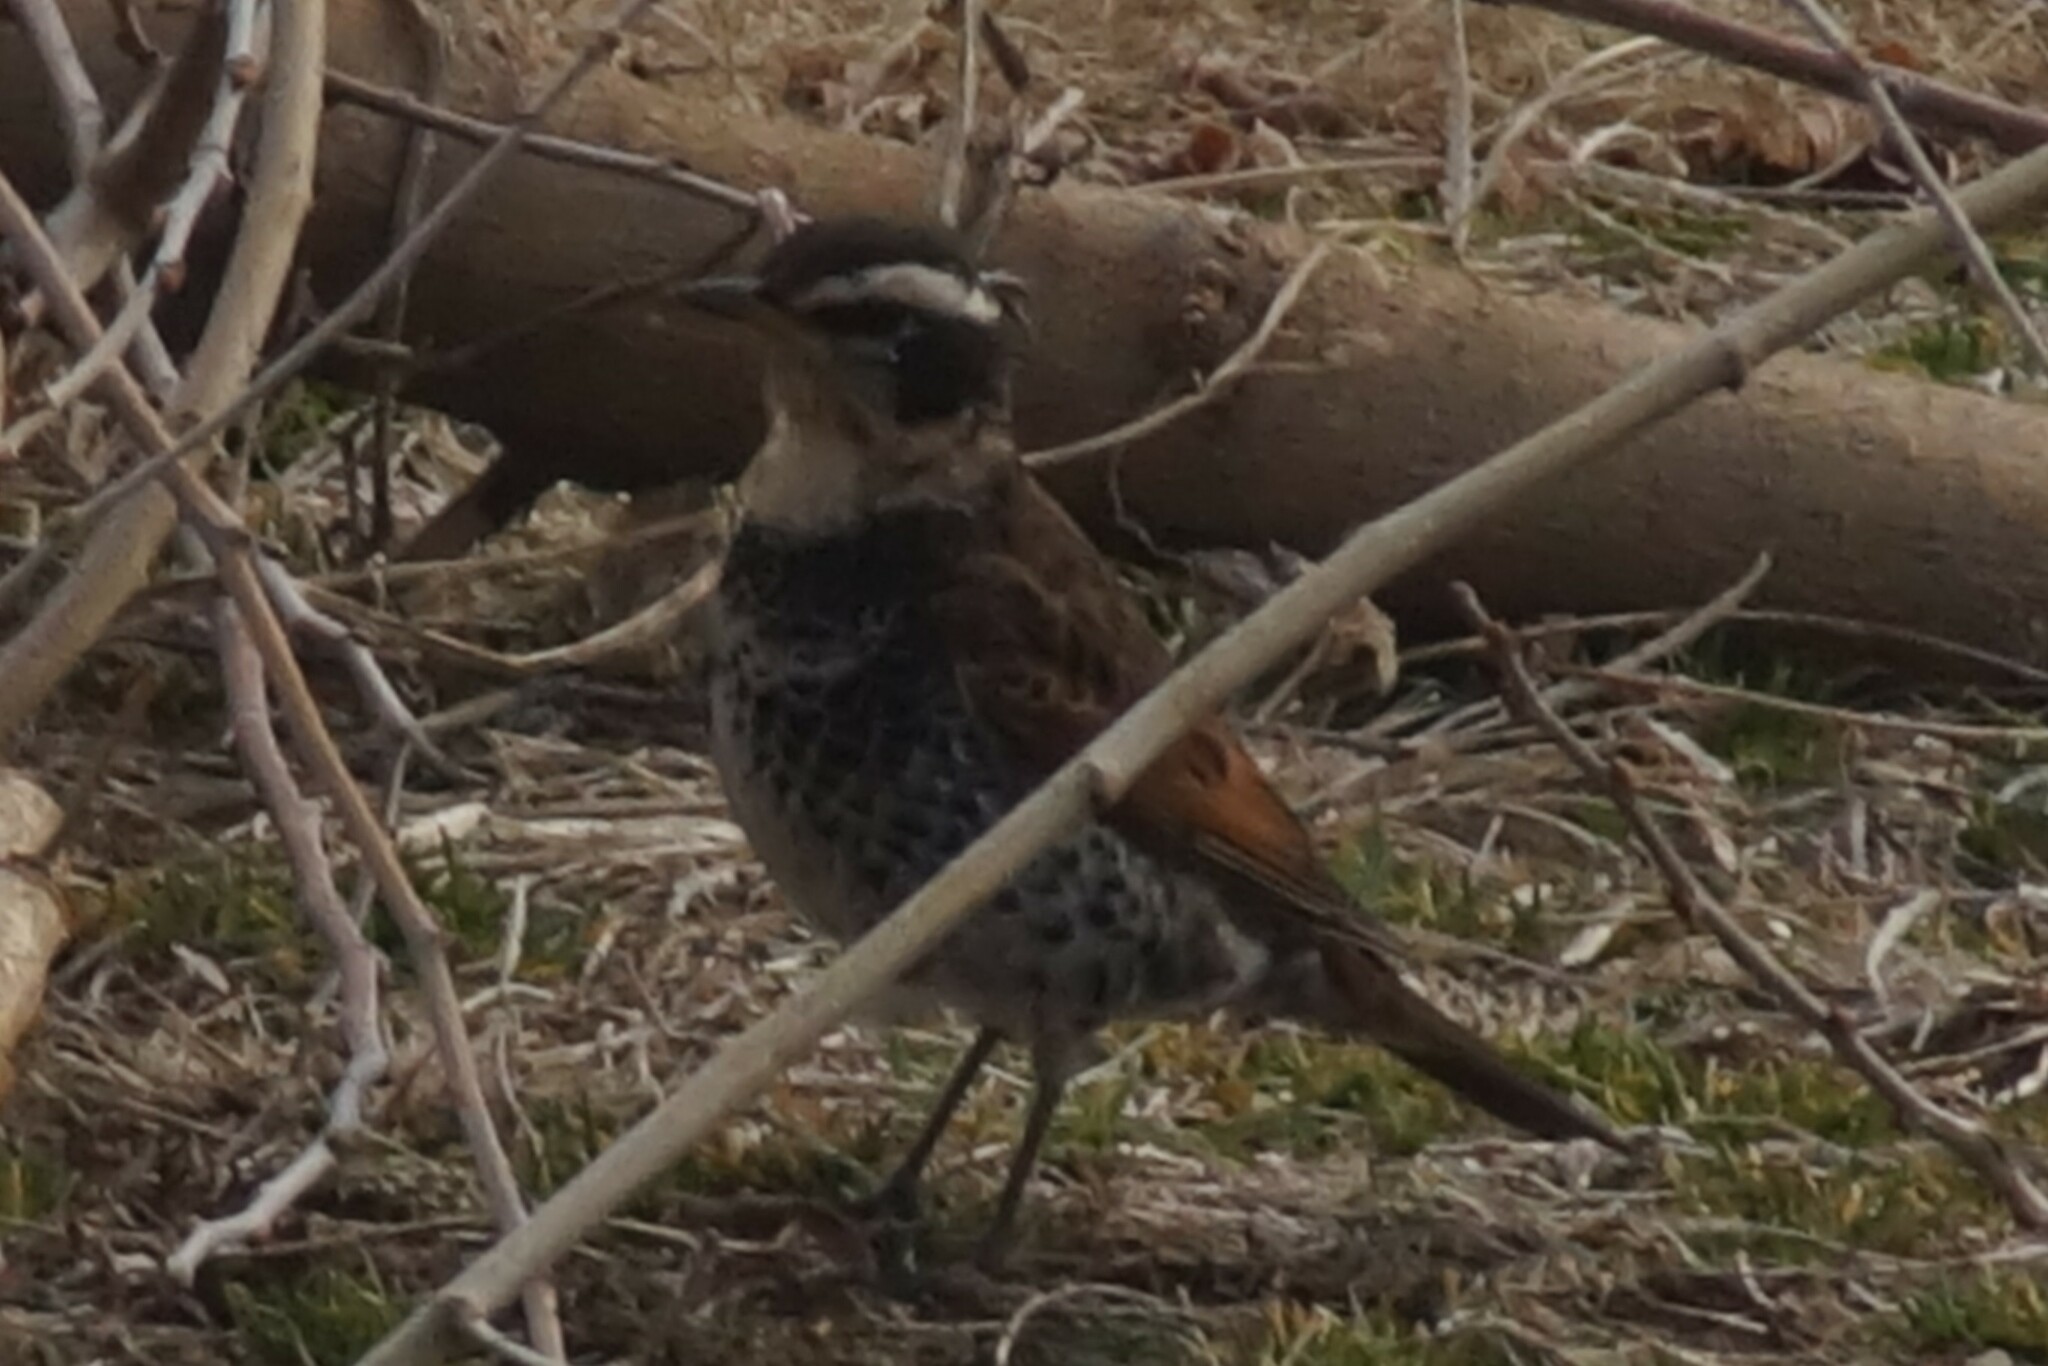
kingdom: Animalia
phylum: Chordata
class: Aves
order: Passeriformes
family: Turdidae
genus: Turdus
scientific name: Turdus eunomus
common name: Dusky thrush
